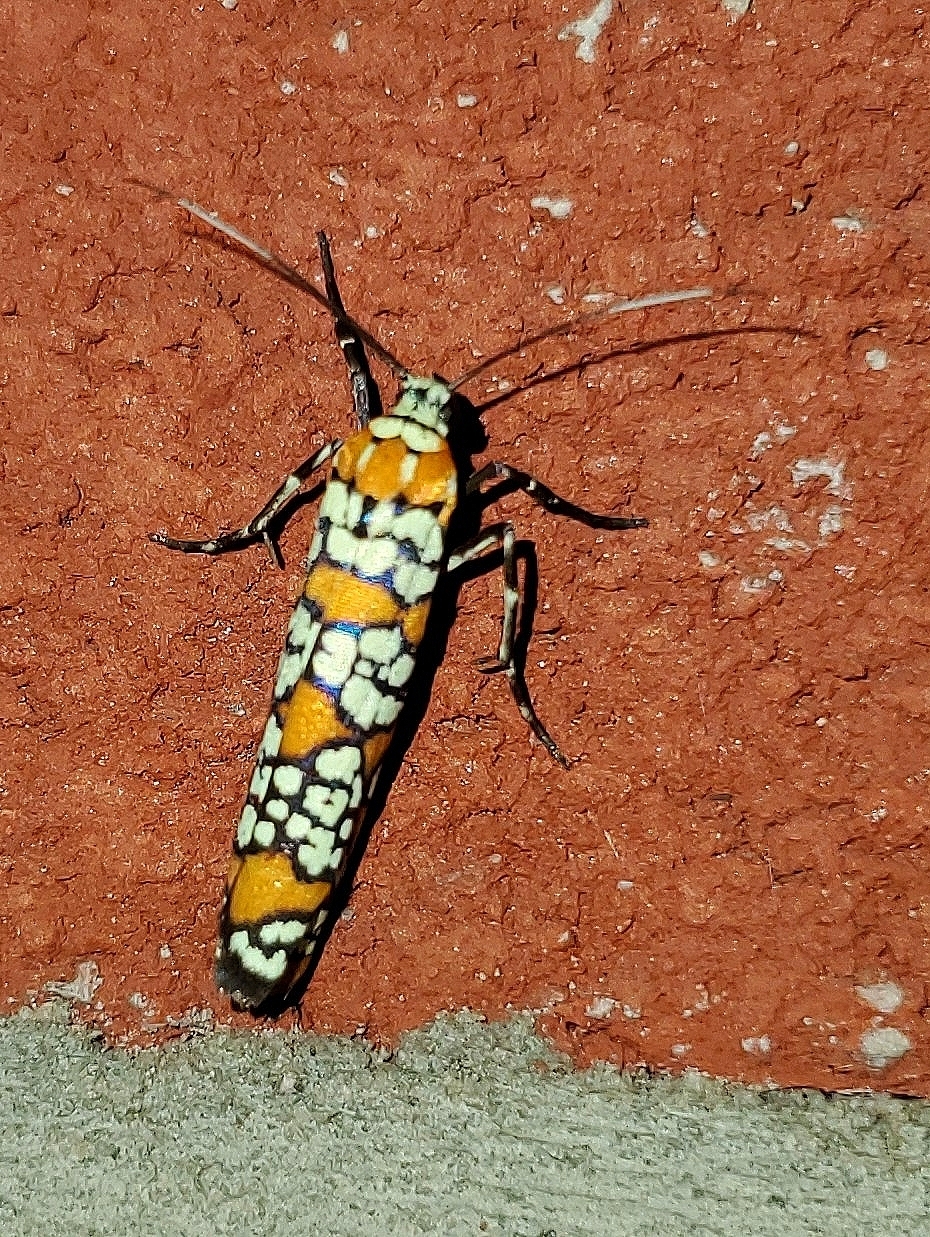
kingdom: Animalia
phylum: Arthropoda
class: Insecta
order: Lepidoptera
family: Attevidae
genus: Atteva
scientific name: Atteva punctella
